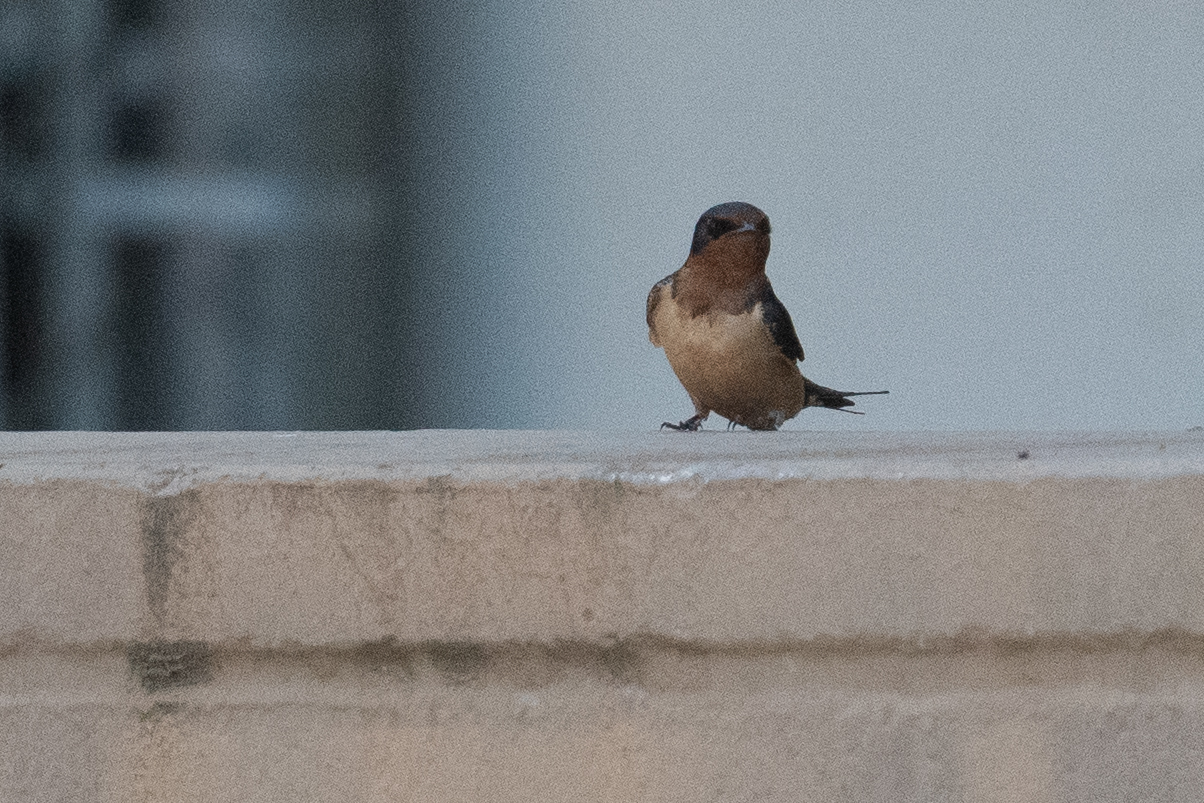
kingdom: Animalia
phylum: Chordata
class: Aves
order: Passeriformes
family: Hirundinidae
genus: Hirundo
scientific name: Hirundo rustica
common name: Barn swallow
